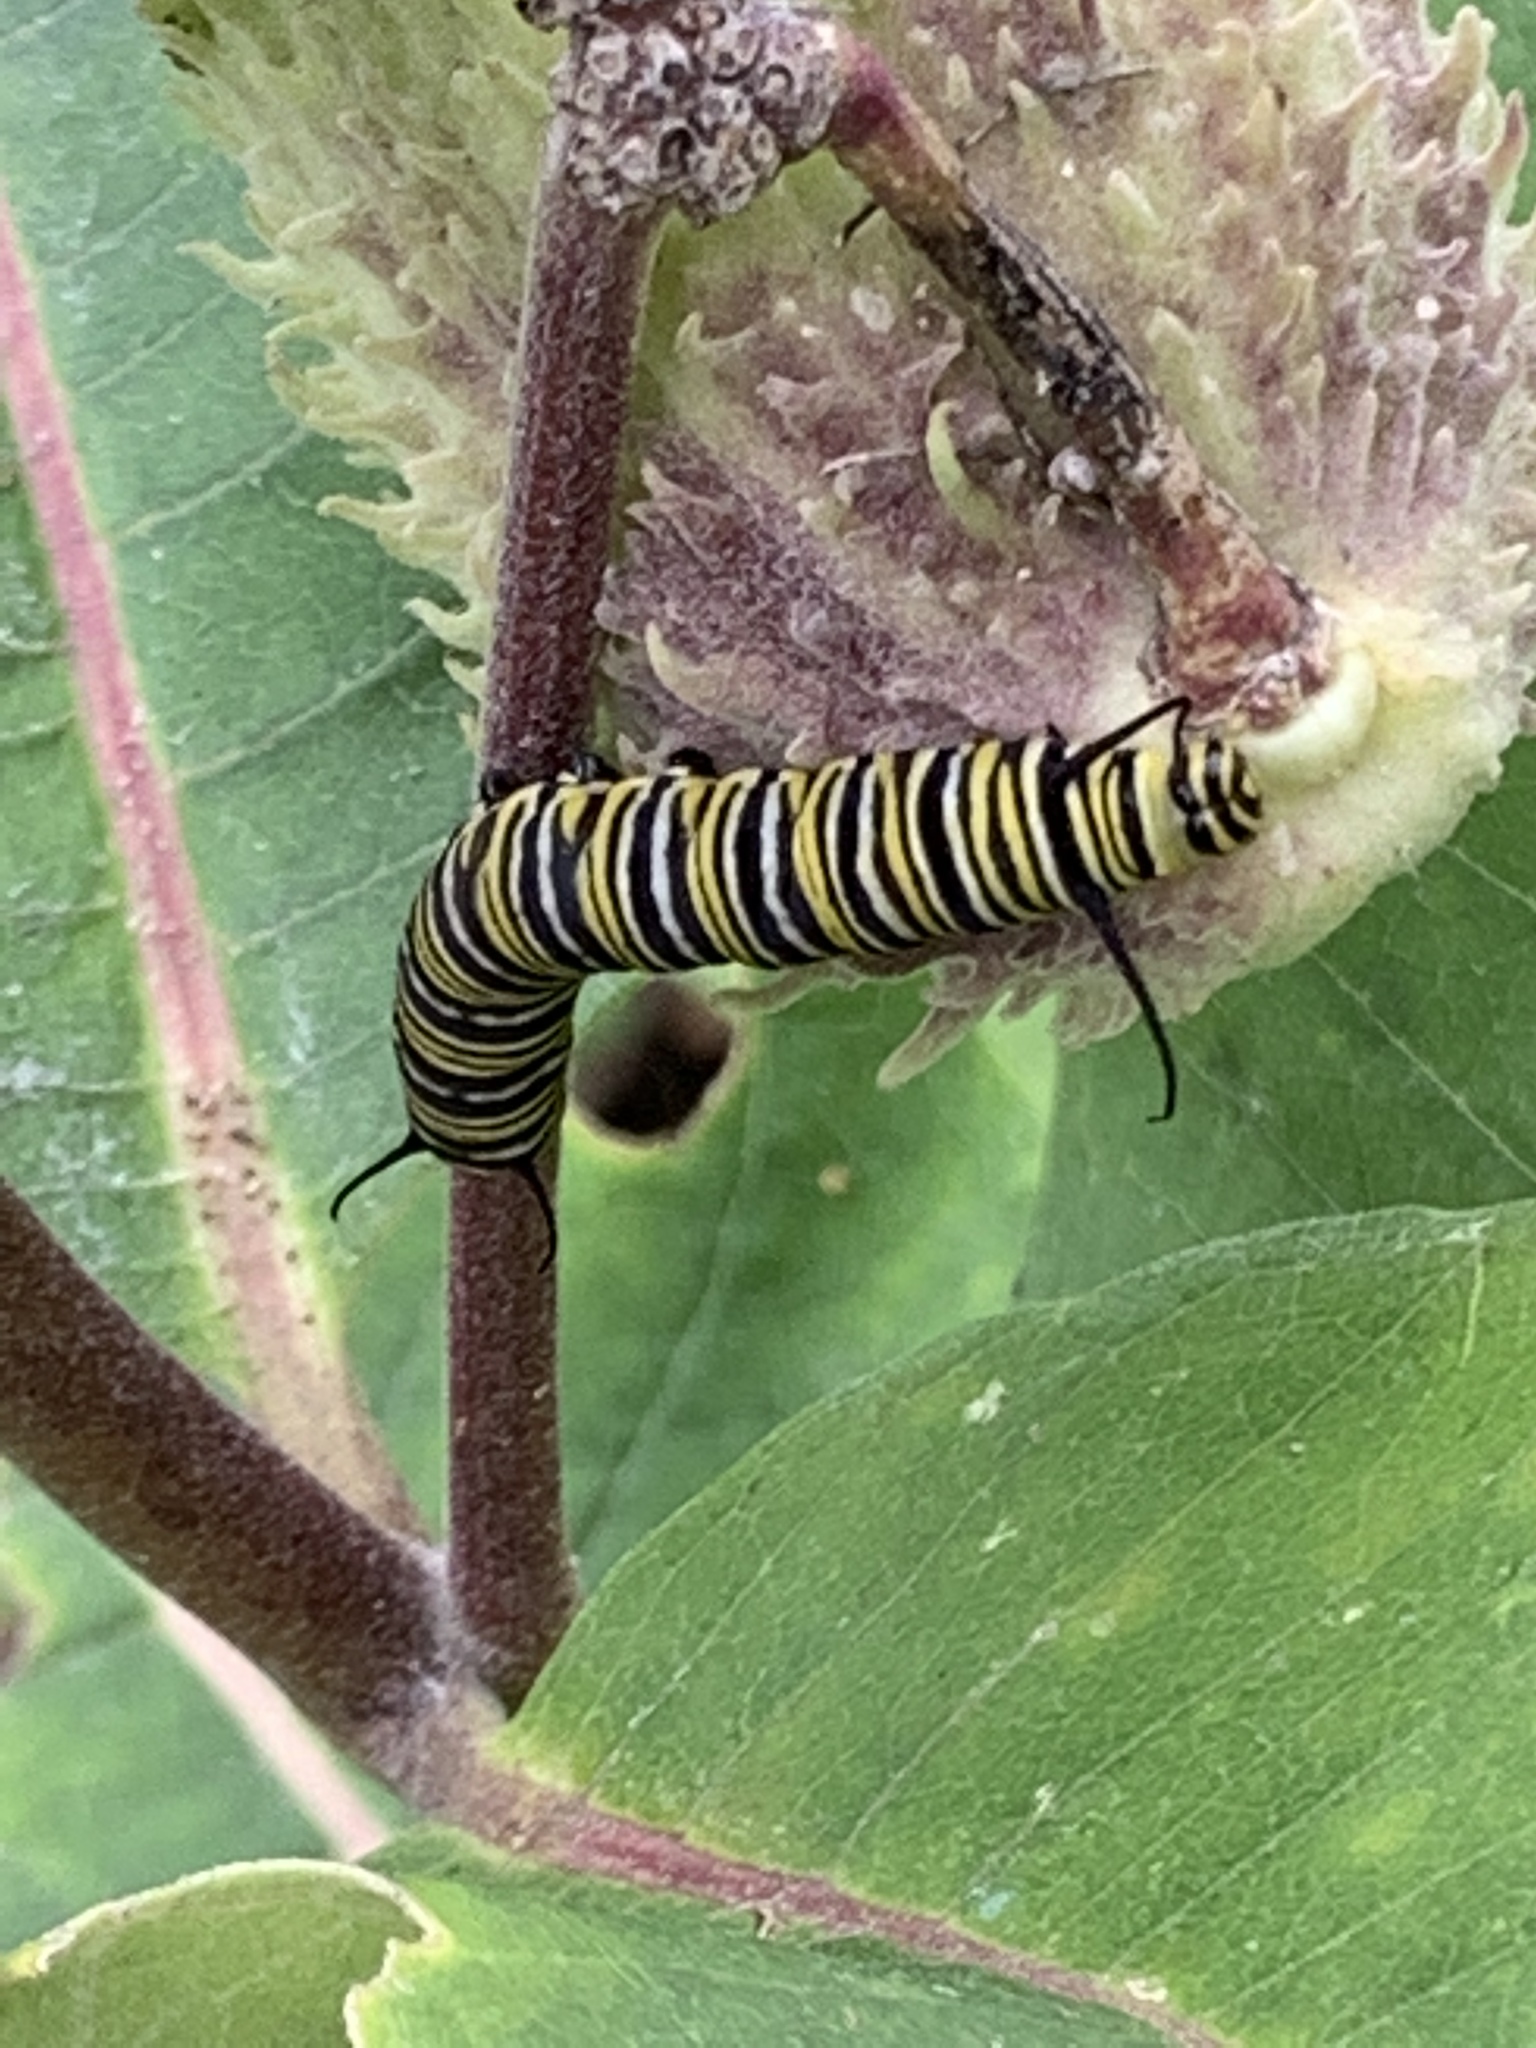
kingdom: Animalia
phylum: Arthropoda
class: Insecta
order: Lepidoptera
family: Nymphalidae
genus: Danaus
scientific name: Danaus plexippus
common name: Monarch
